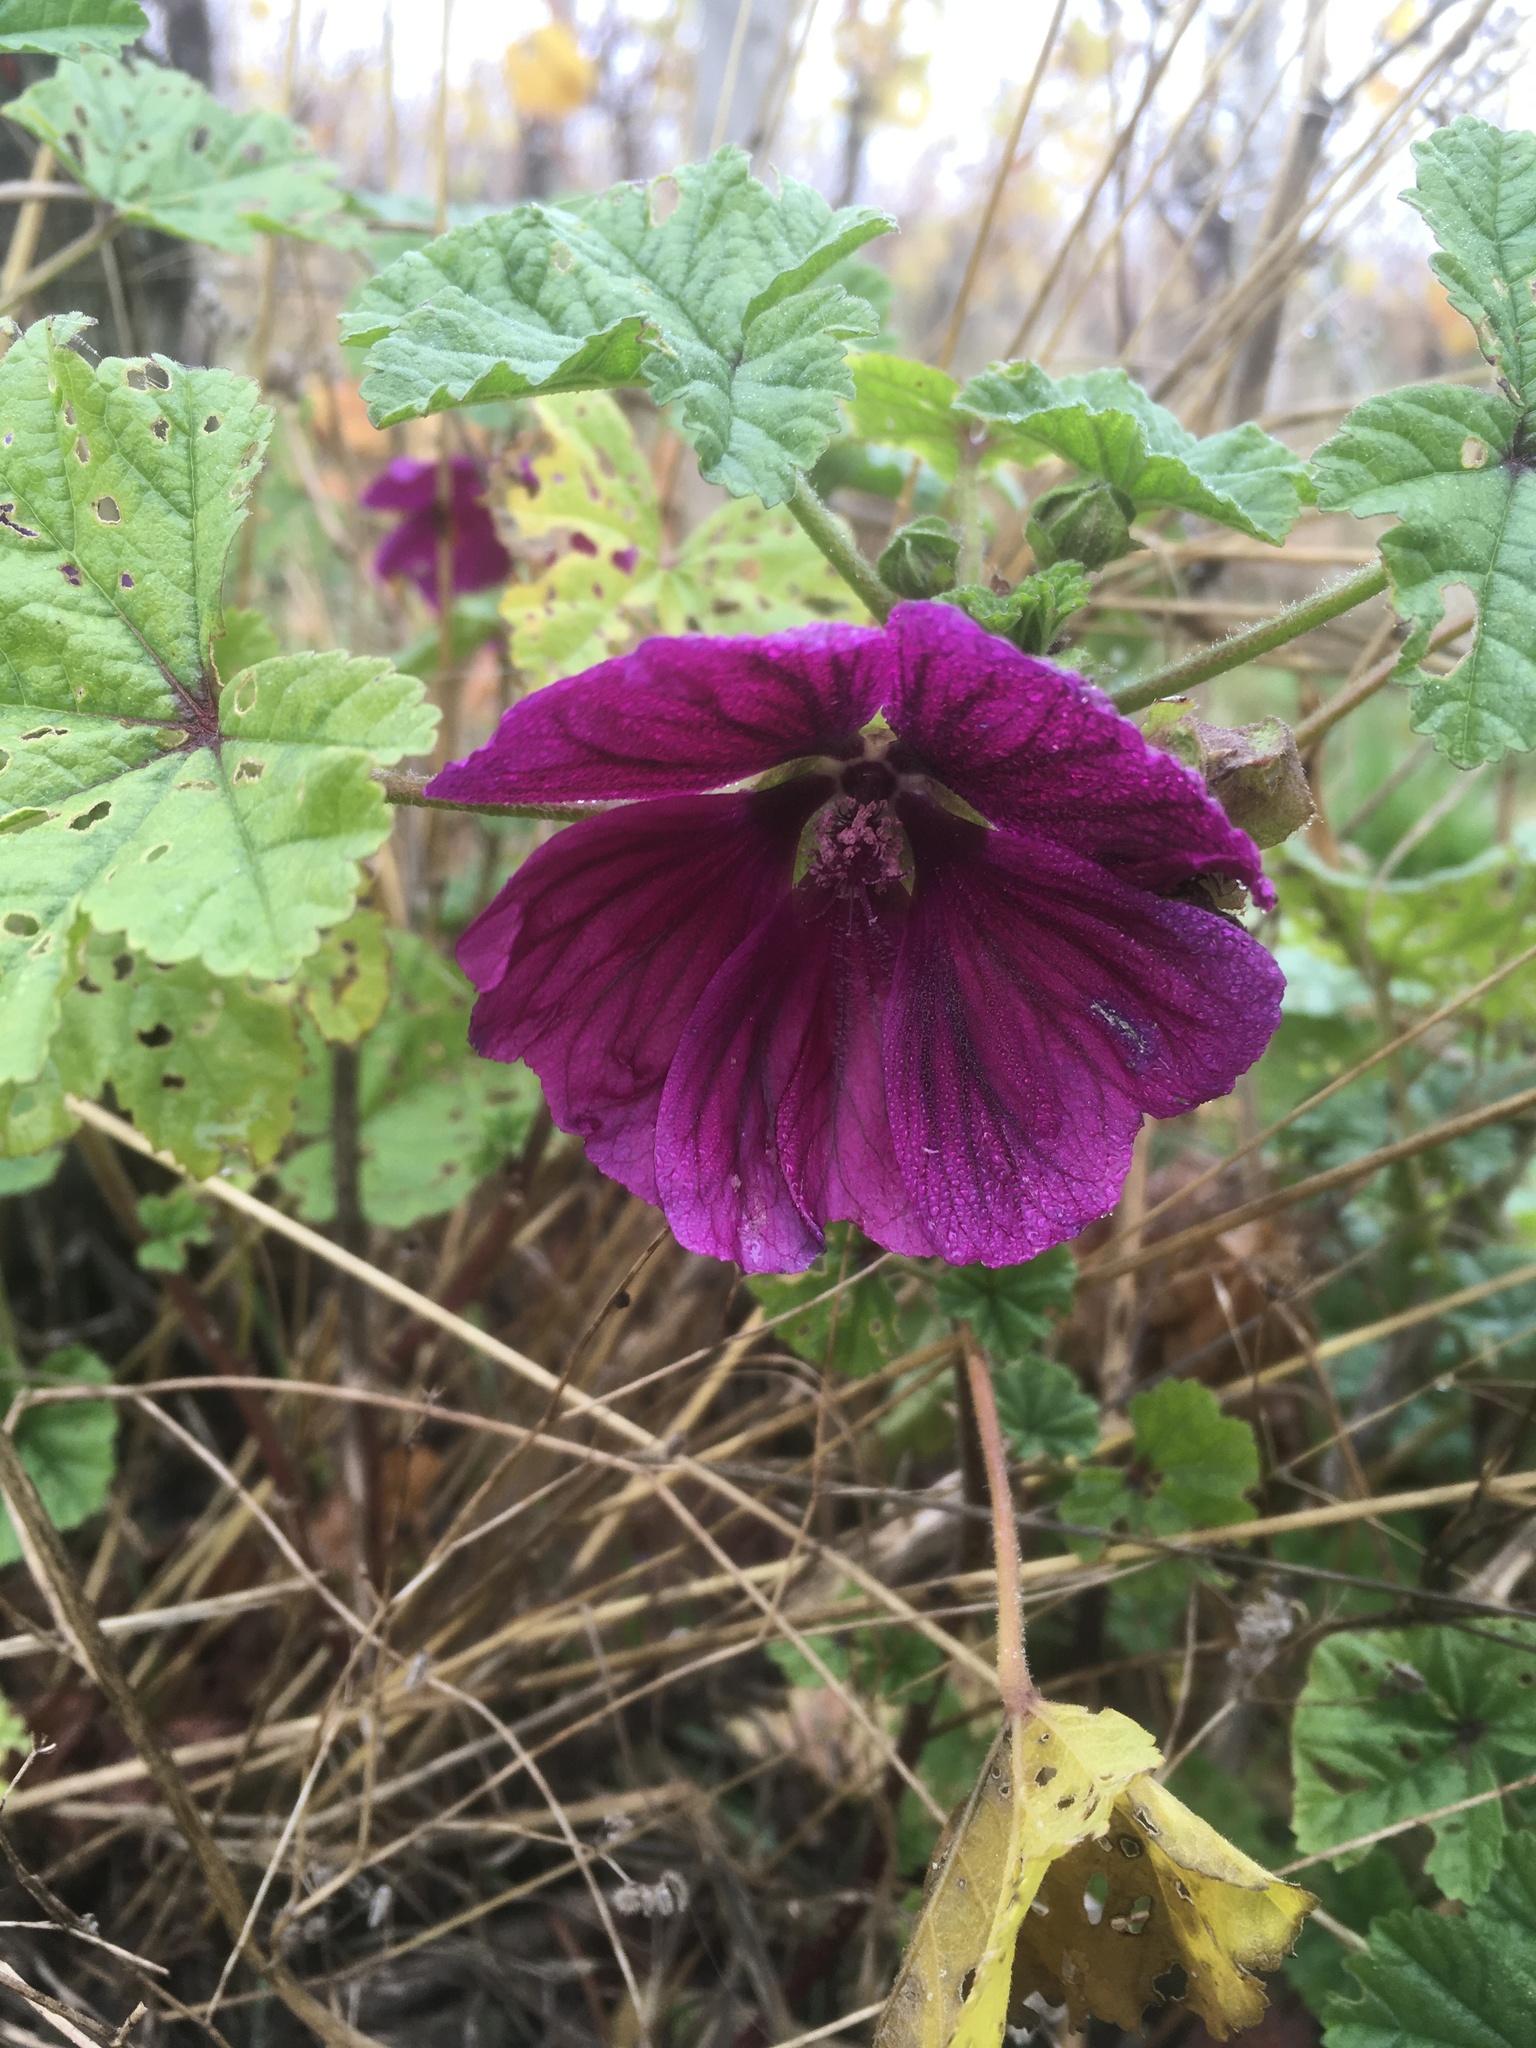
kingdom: Plantae
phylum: Tracheophyta
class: Magnoliopsida
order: Malvales
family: Malvaceae
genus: Malva
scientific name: Malva sylvestris
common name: Common mallow
